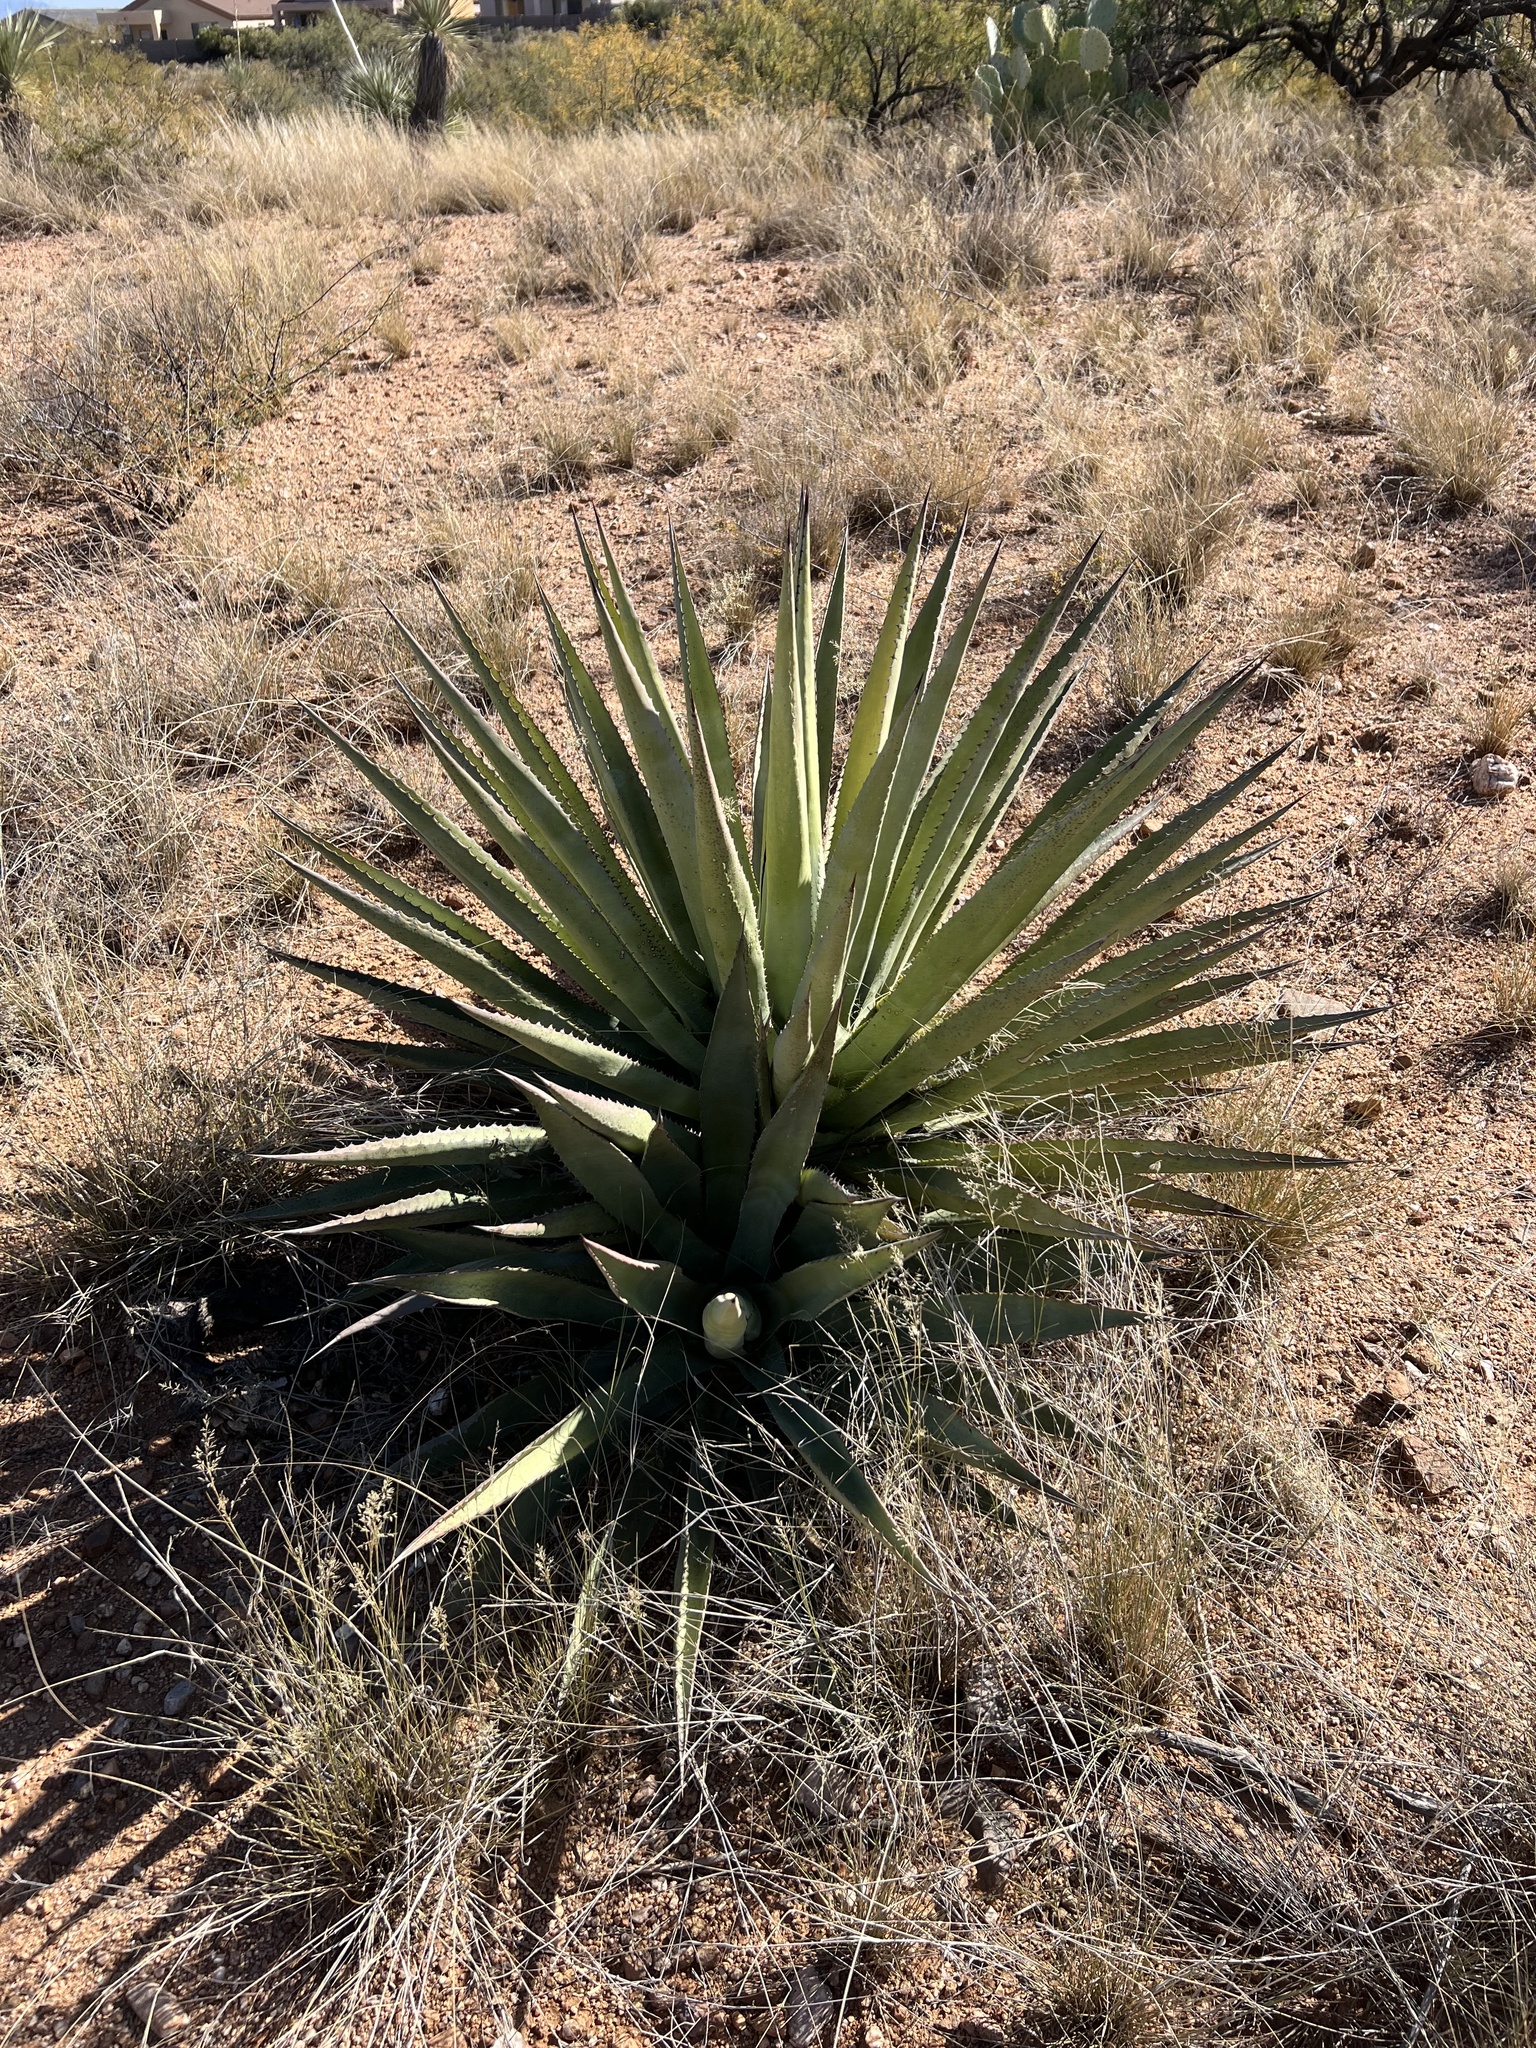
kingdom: Plantae
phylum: Tracheophyta
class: Liliopsida
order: Asparagales
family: Asparagaceae
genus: Agave
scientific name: Agave palmeri
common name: Palmer agave
